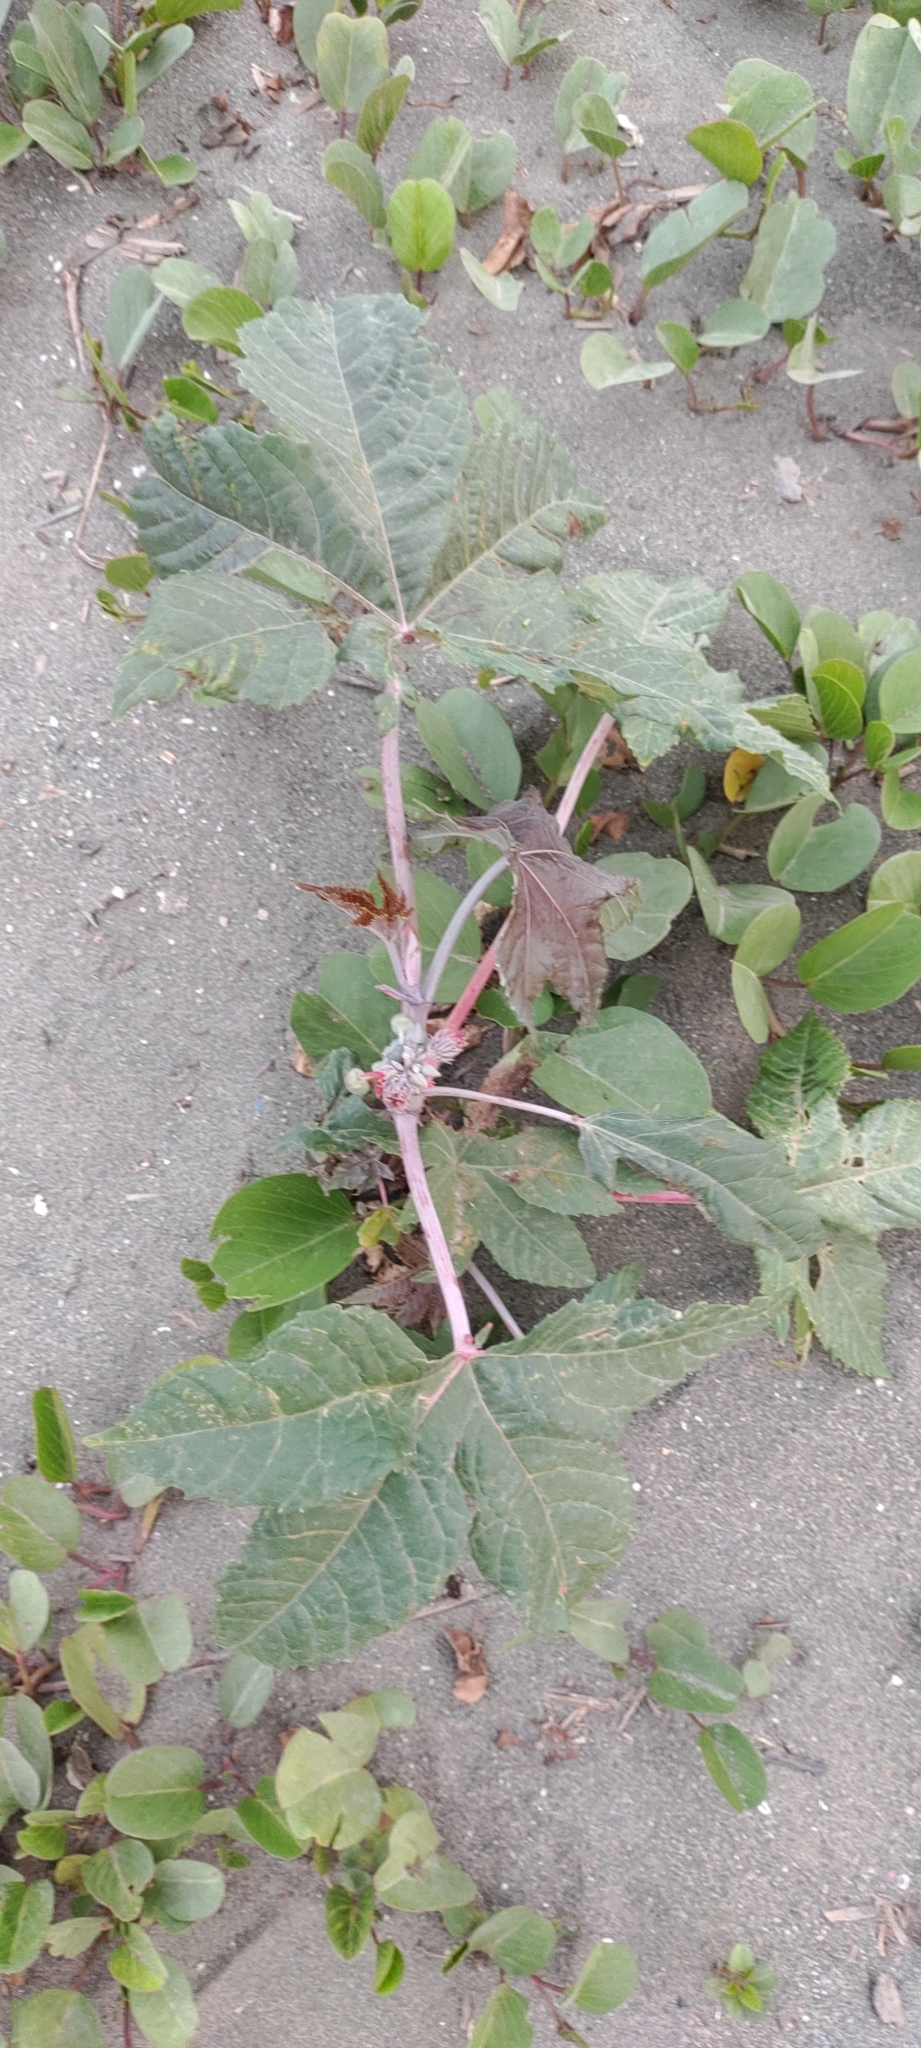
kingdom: Plantae
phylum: Tracheophyta
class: Magnoliopsida
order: Malpighiales
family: Euphorbiaceae
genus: Ricinus
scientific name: Ricinus communis
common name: Castor-oil-plant
